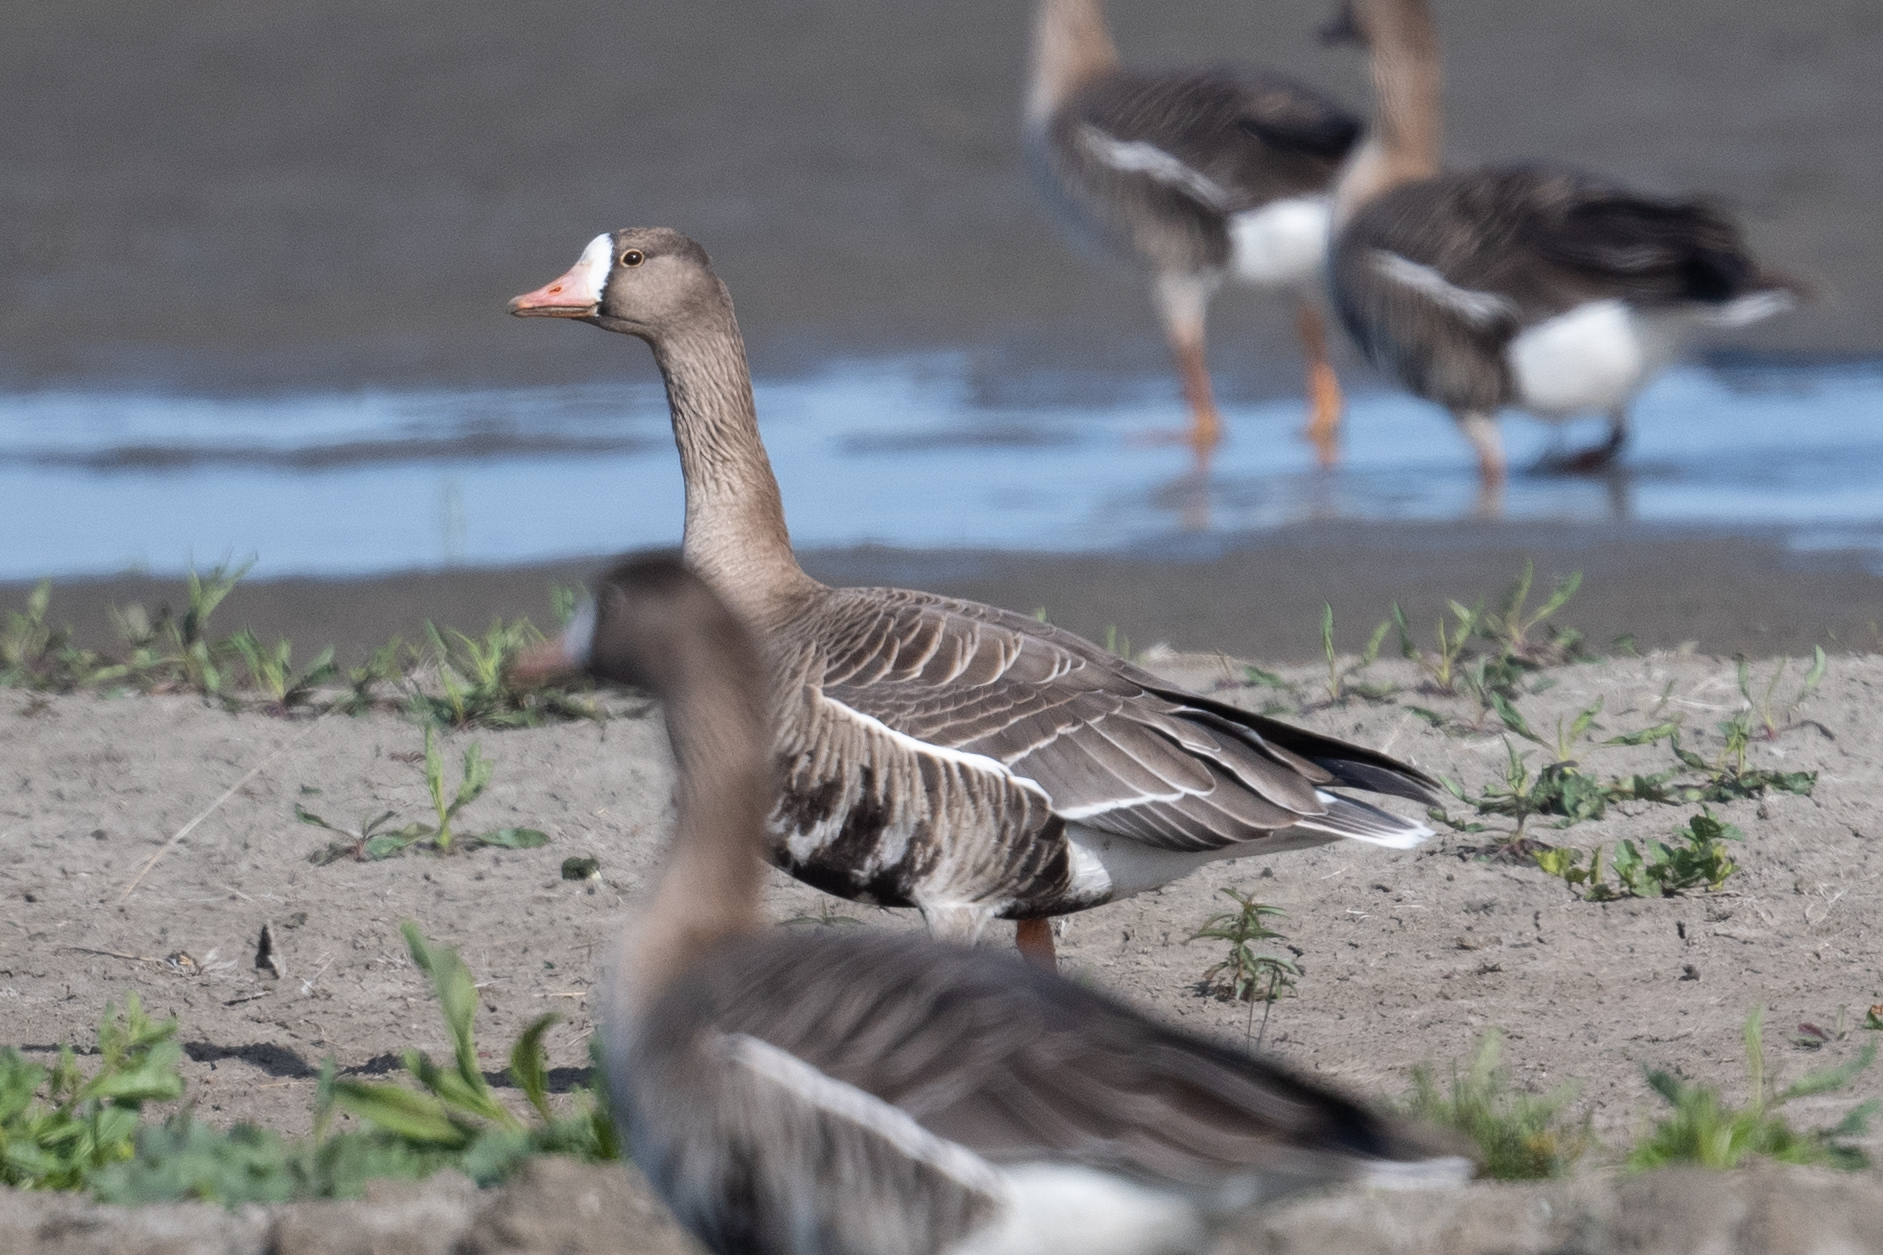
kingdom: Animalia
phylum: Chordata
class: Aves
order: Anseriformes
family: Anatidae
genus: Anser
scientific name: Anser albifrons
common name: Greater white-fronted goose
